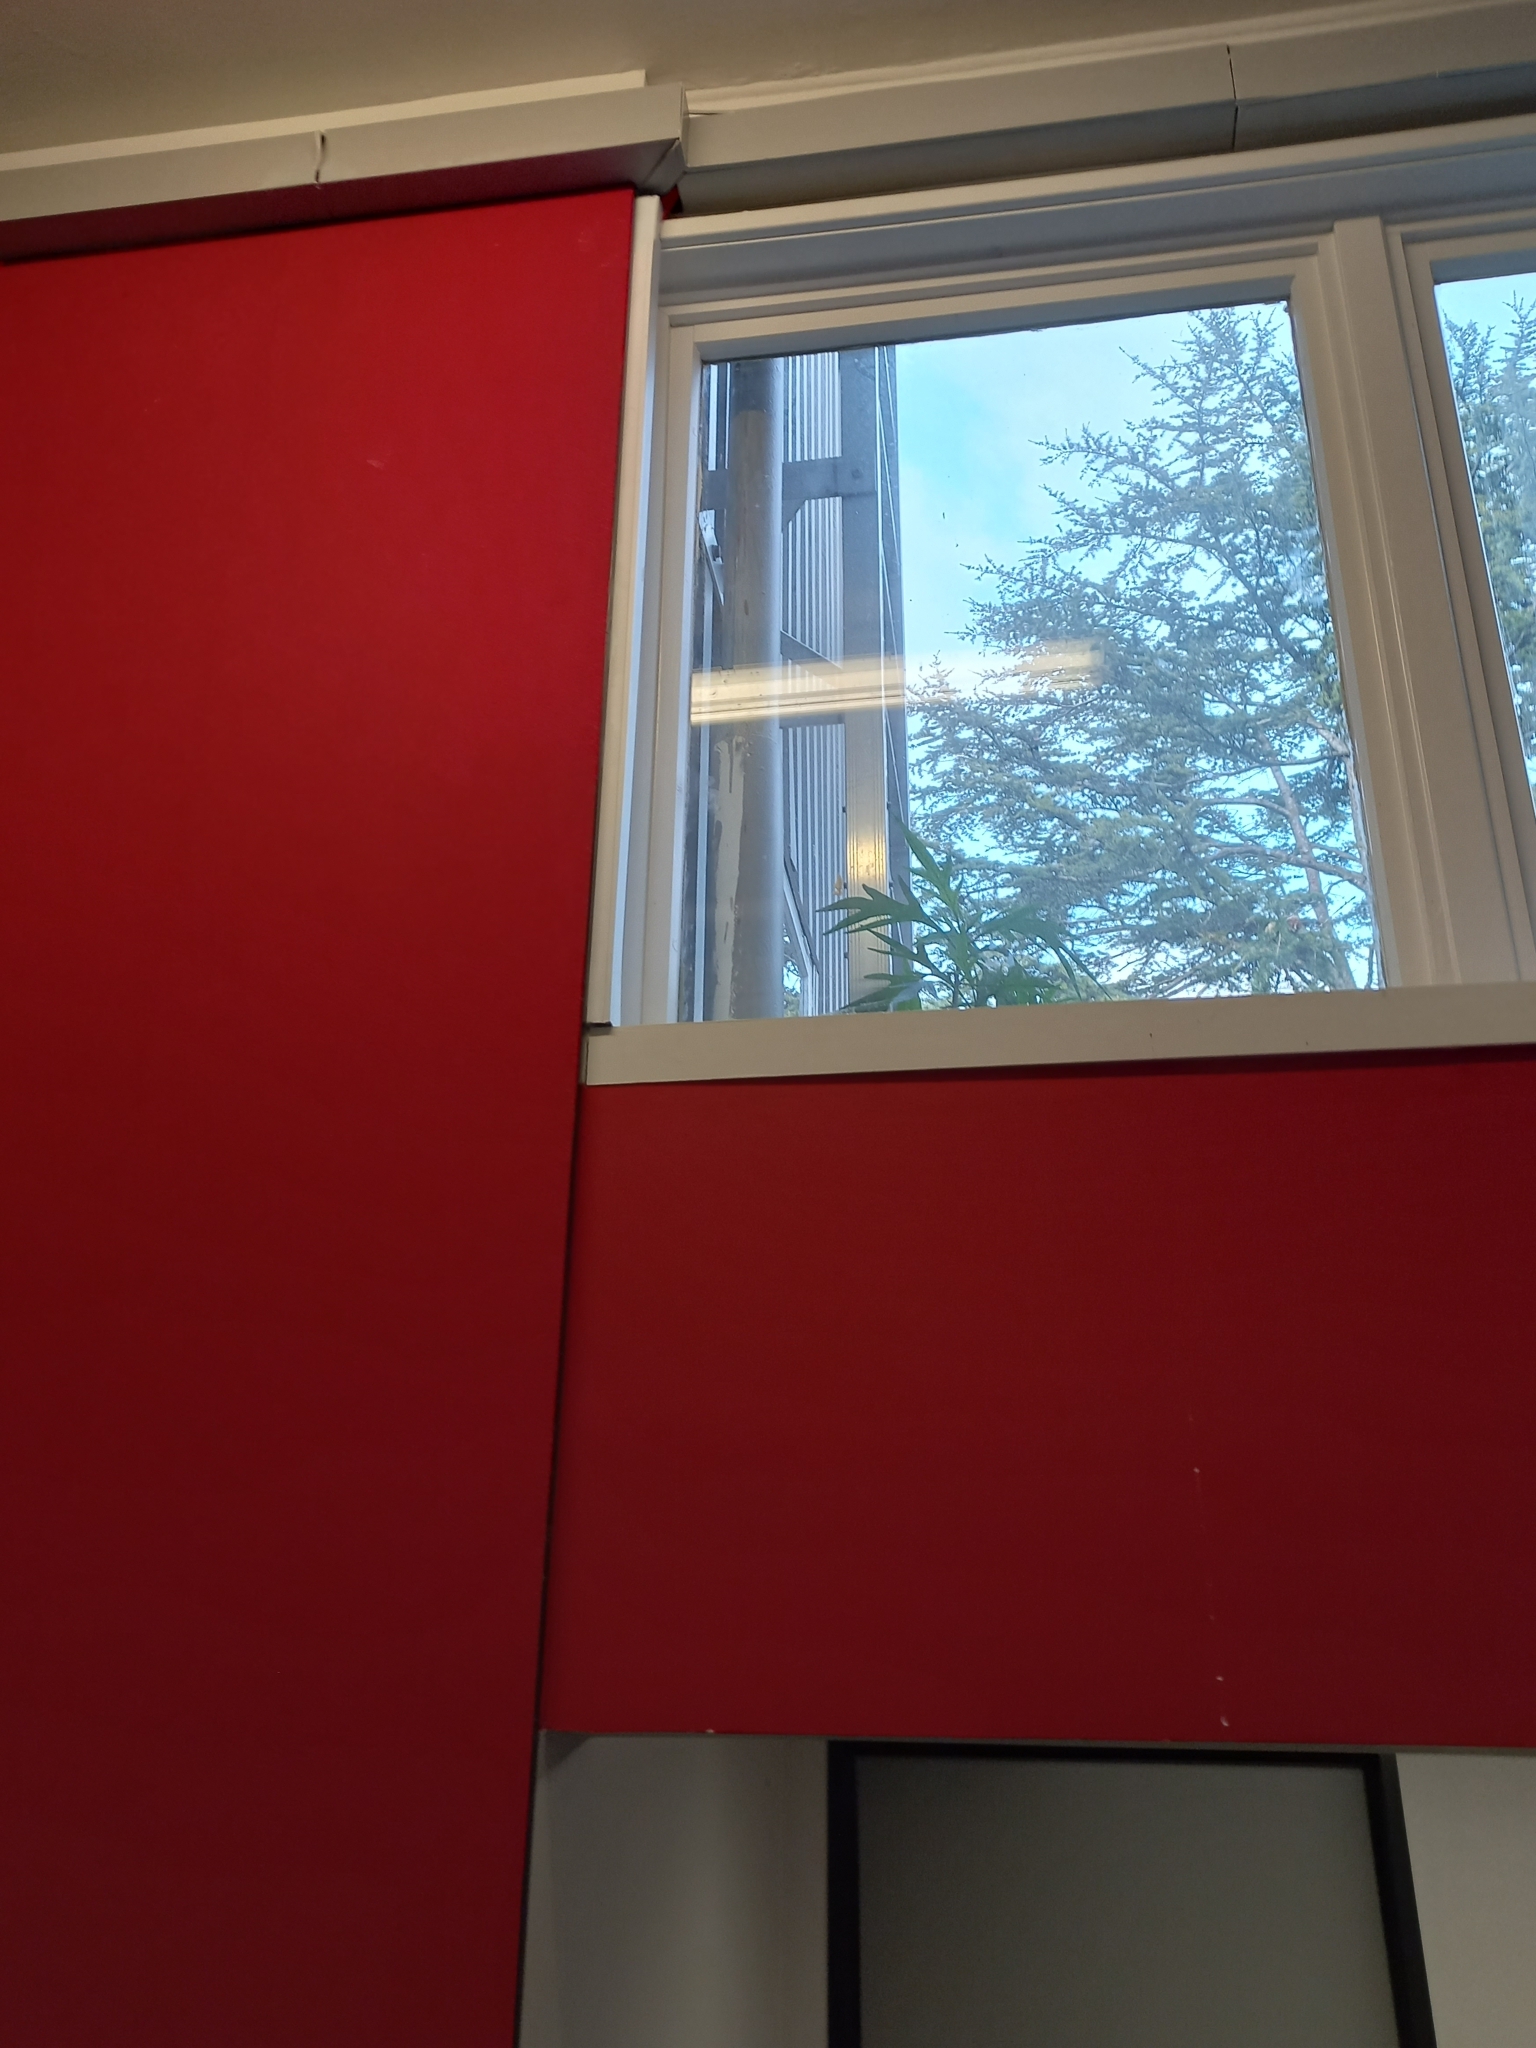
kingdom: Plantae
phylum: Tracheophyta
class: Magnoliopsida
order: Solanales
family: Solanaceae
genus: Solanum
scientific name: Solanum
